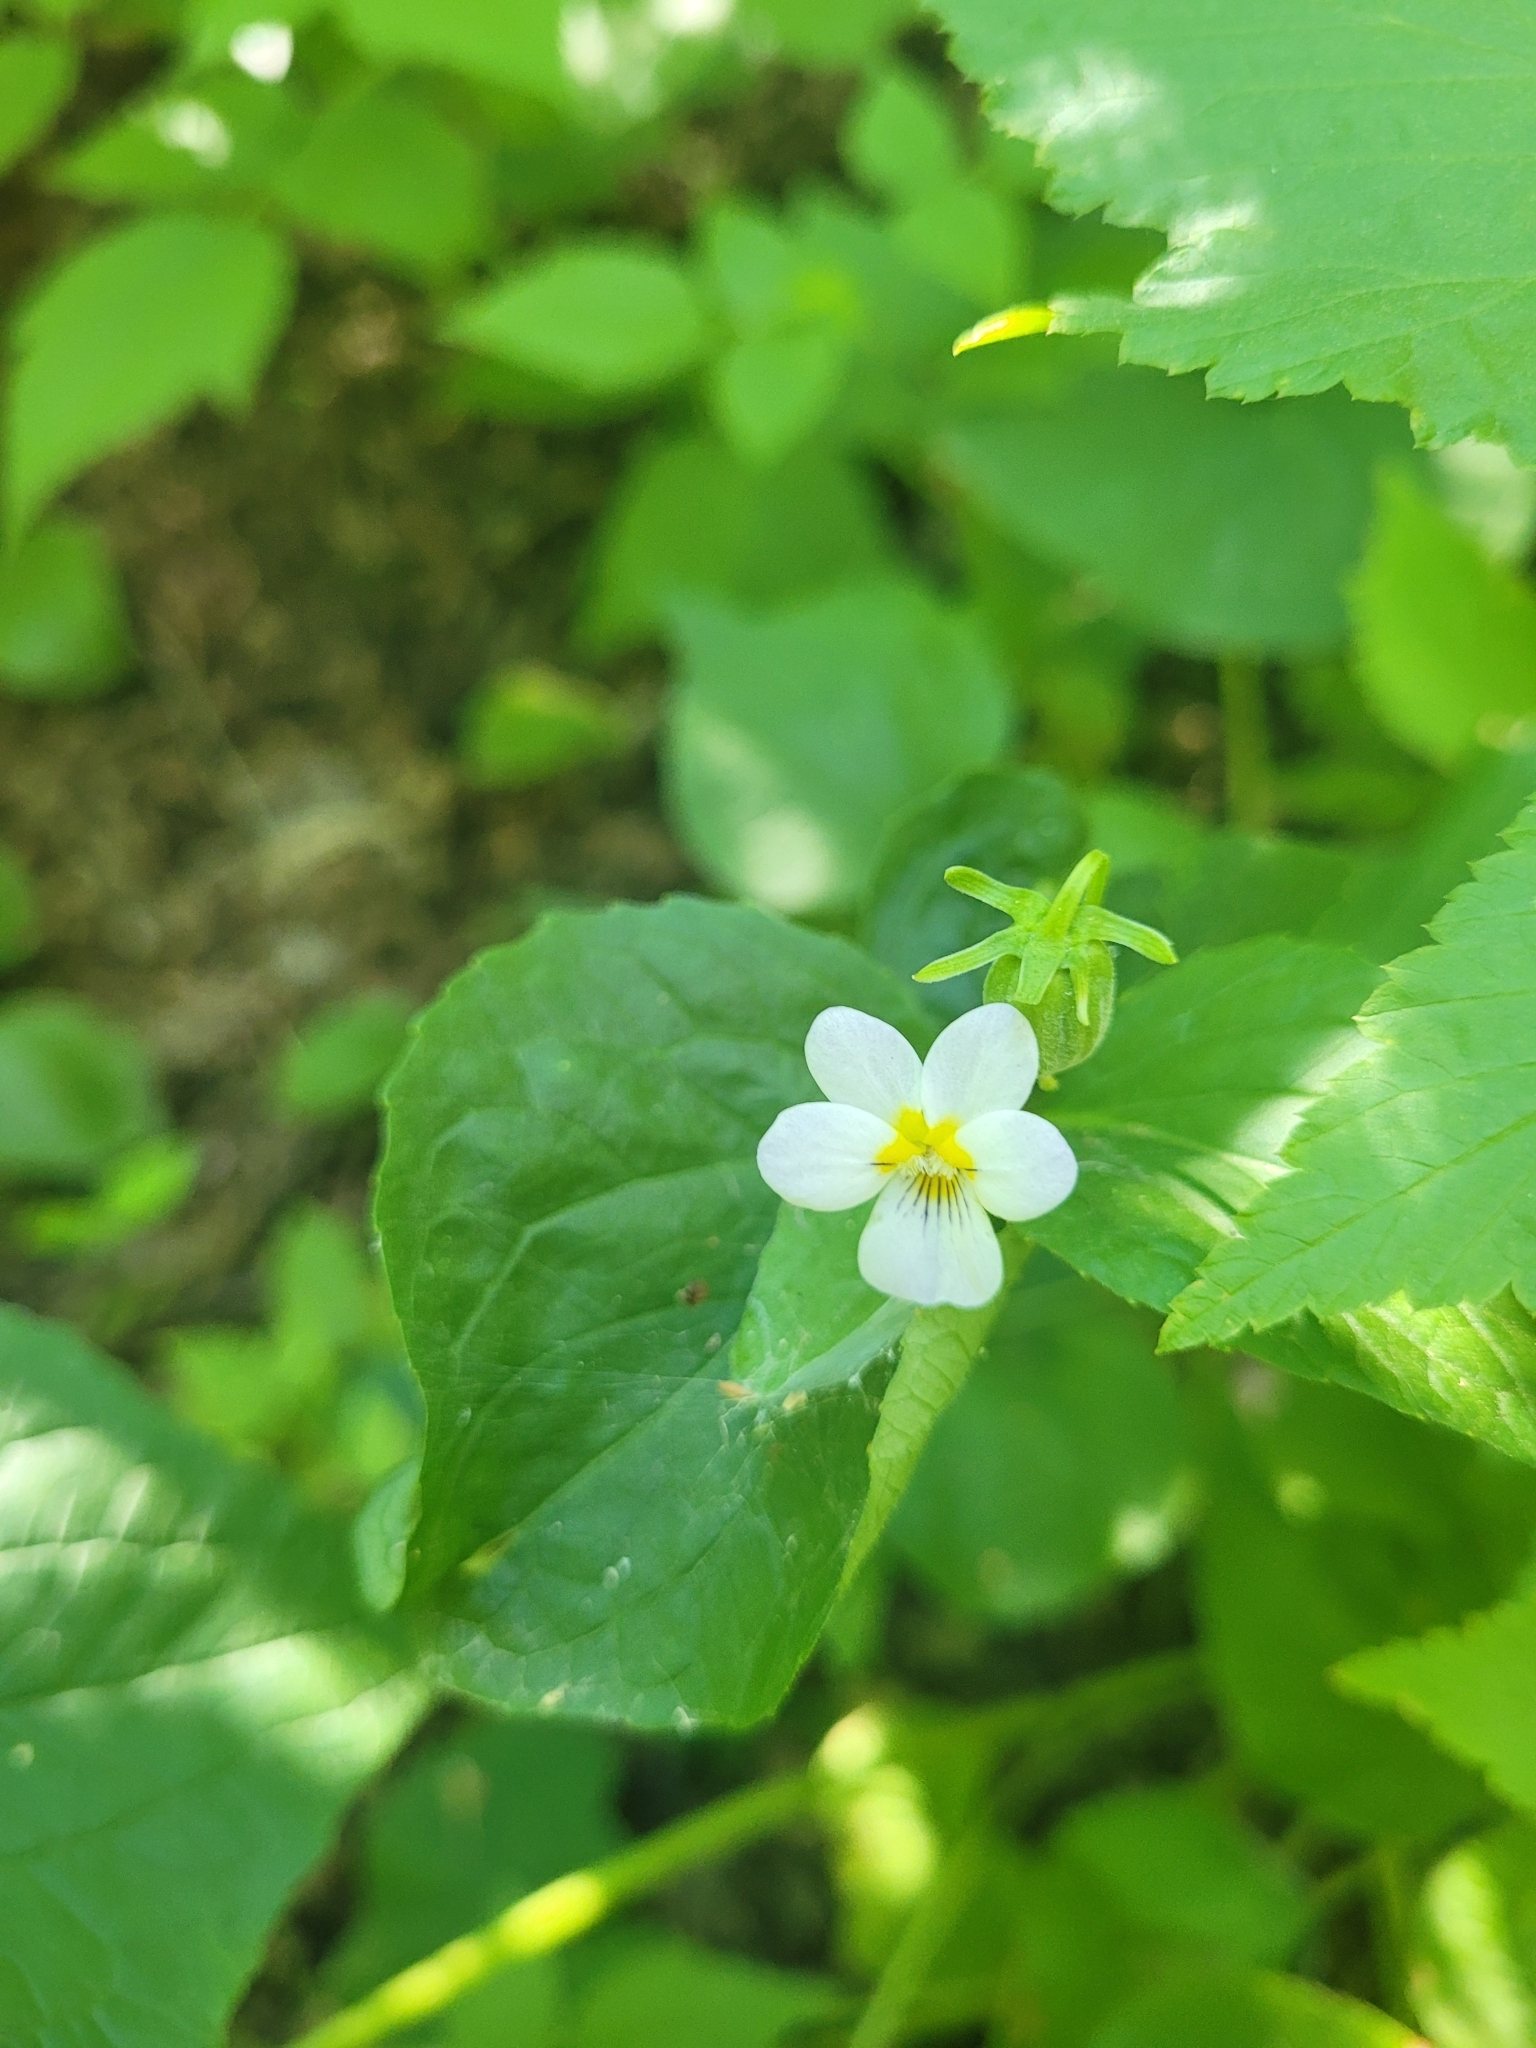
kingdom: Plantae
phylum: Tracheophyta
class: Magnoliopsida
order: Malpighiales
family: Violaceae
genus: Viola
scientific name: Viola canadensis
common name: Canada violet
